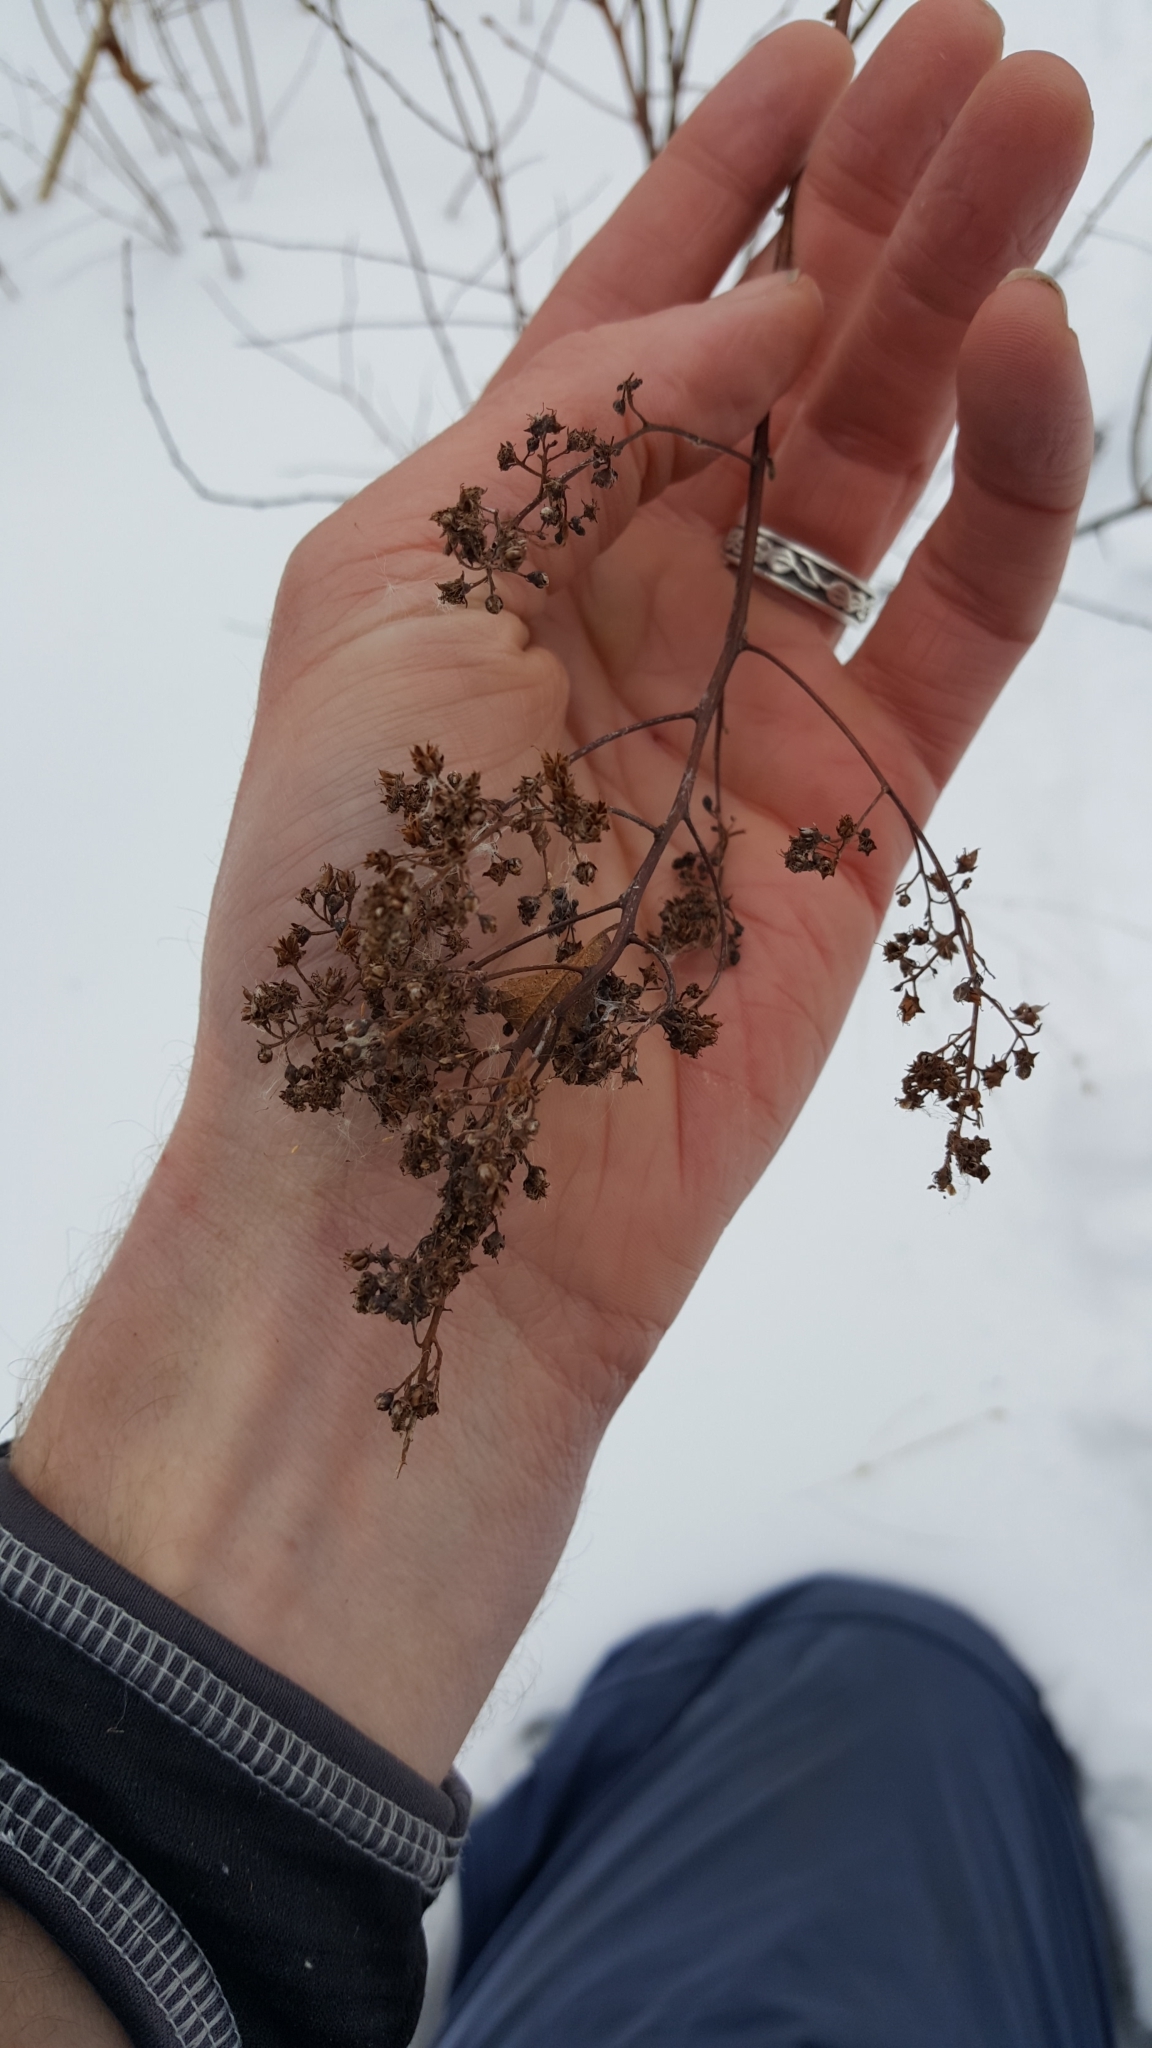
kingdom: Plantae
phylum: Tracheophyta
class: Magnoliopsida
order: Rosales
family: Rosaceae
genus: Spiraea
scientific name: Spiraea alba
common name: Pale bridewort
